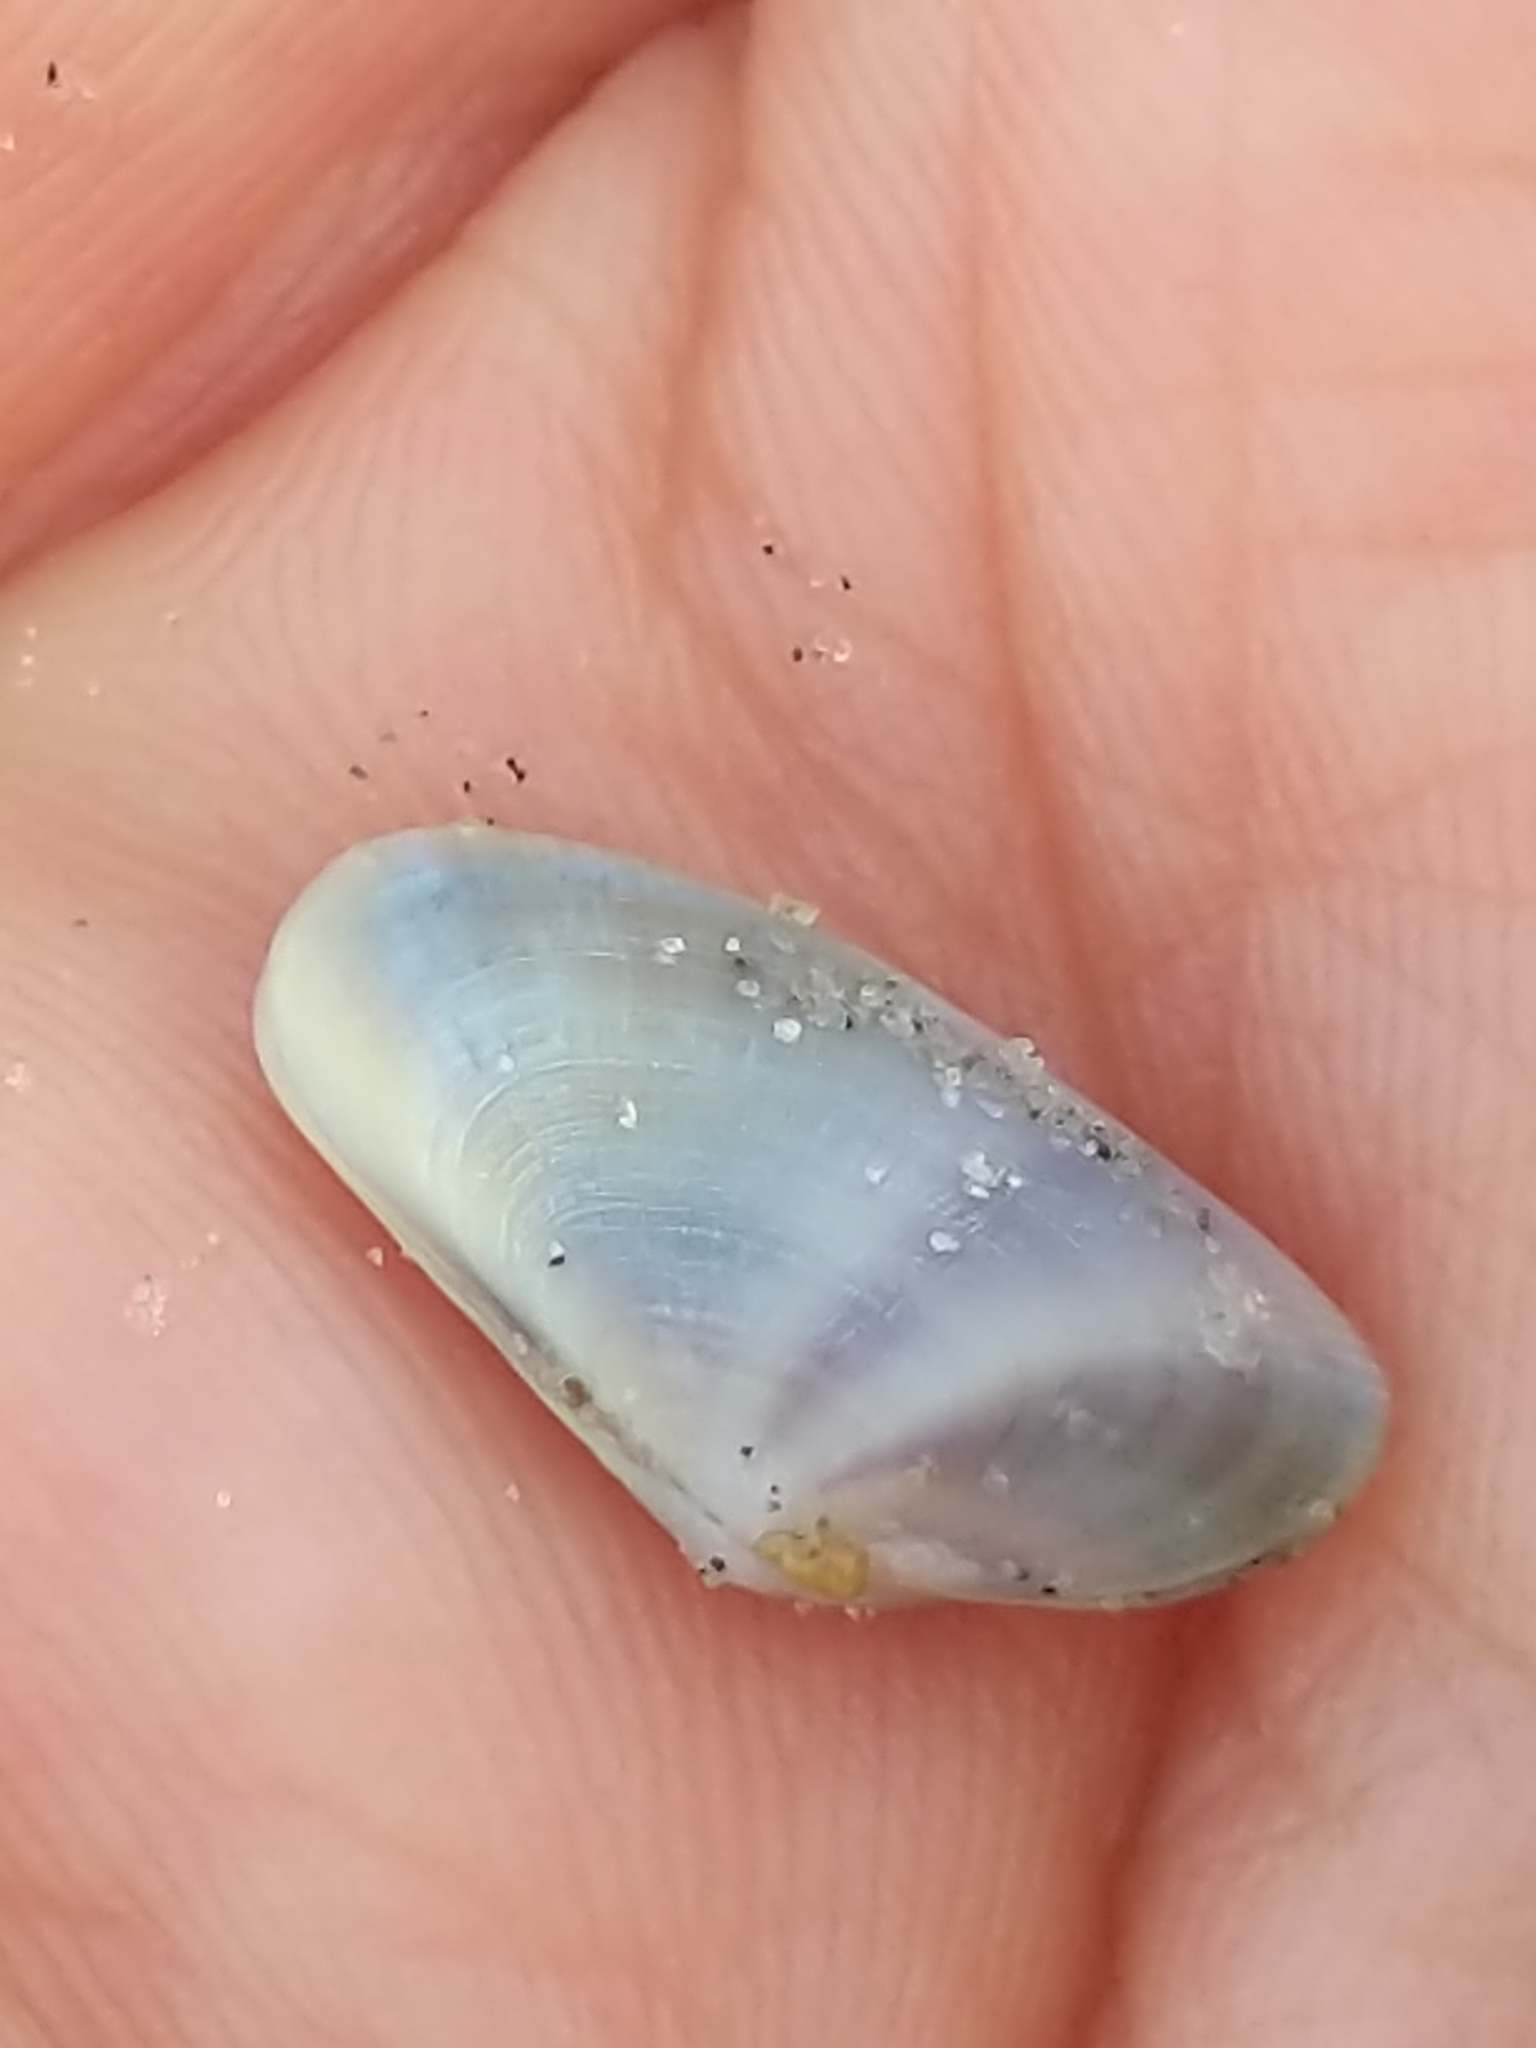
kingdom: Animalia
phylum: Mollusca
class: Bivalvia
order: Cardiida
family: Donacidae
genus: Donax
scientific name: Donax fossor
